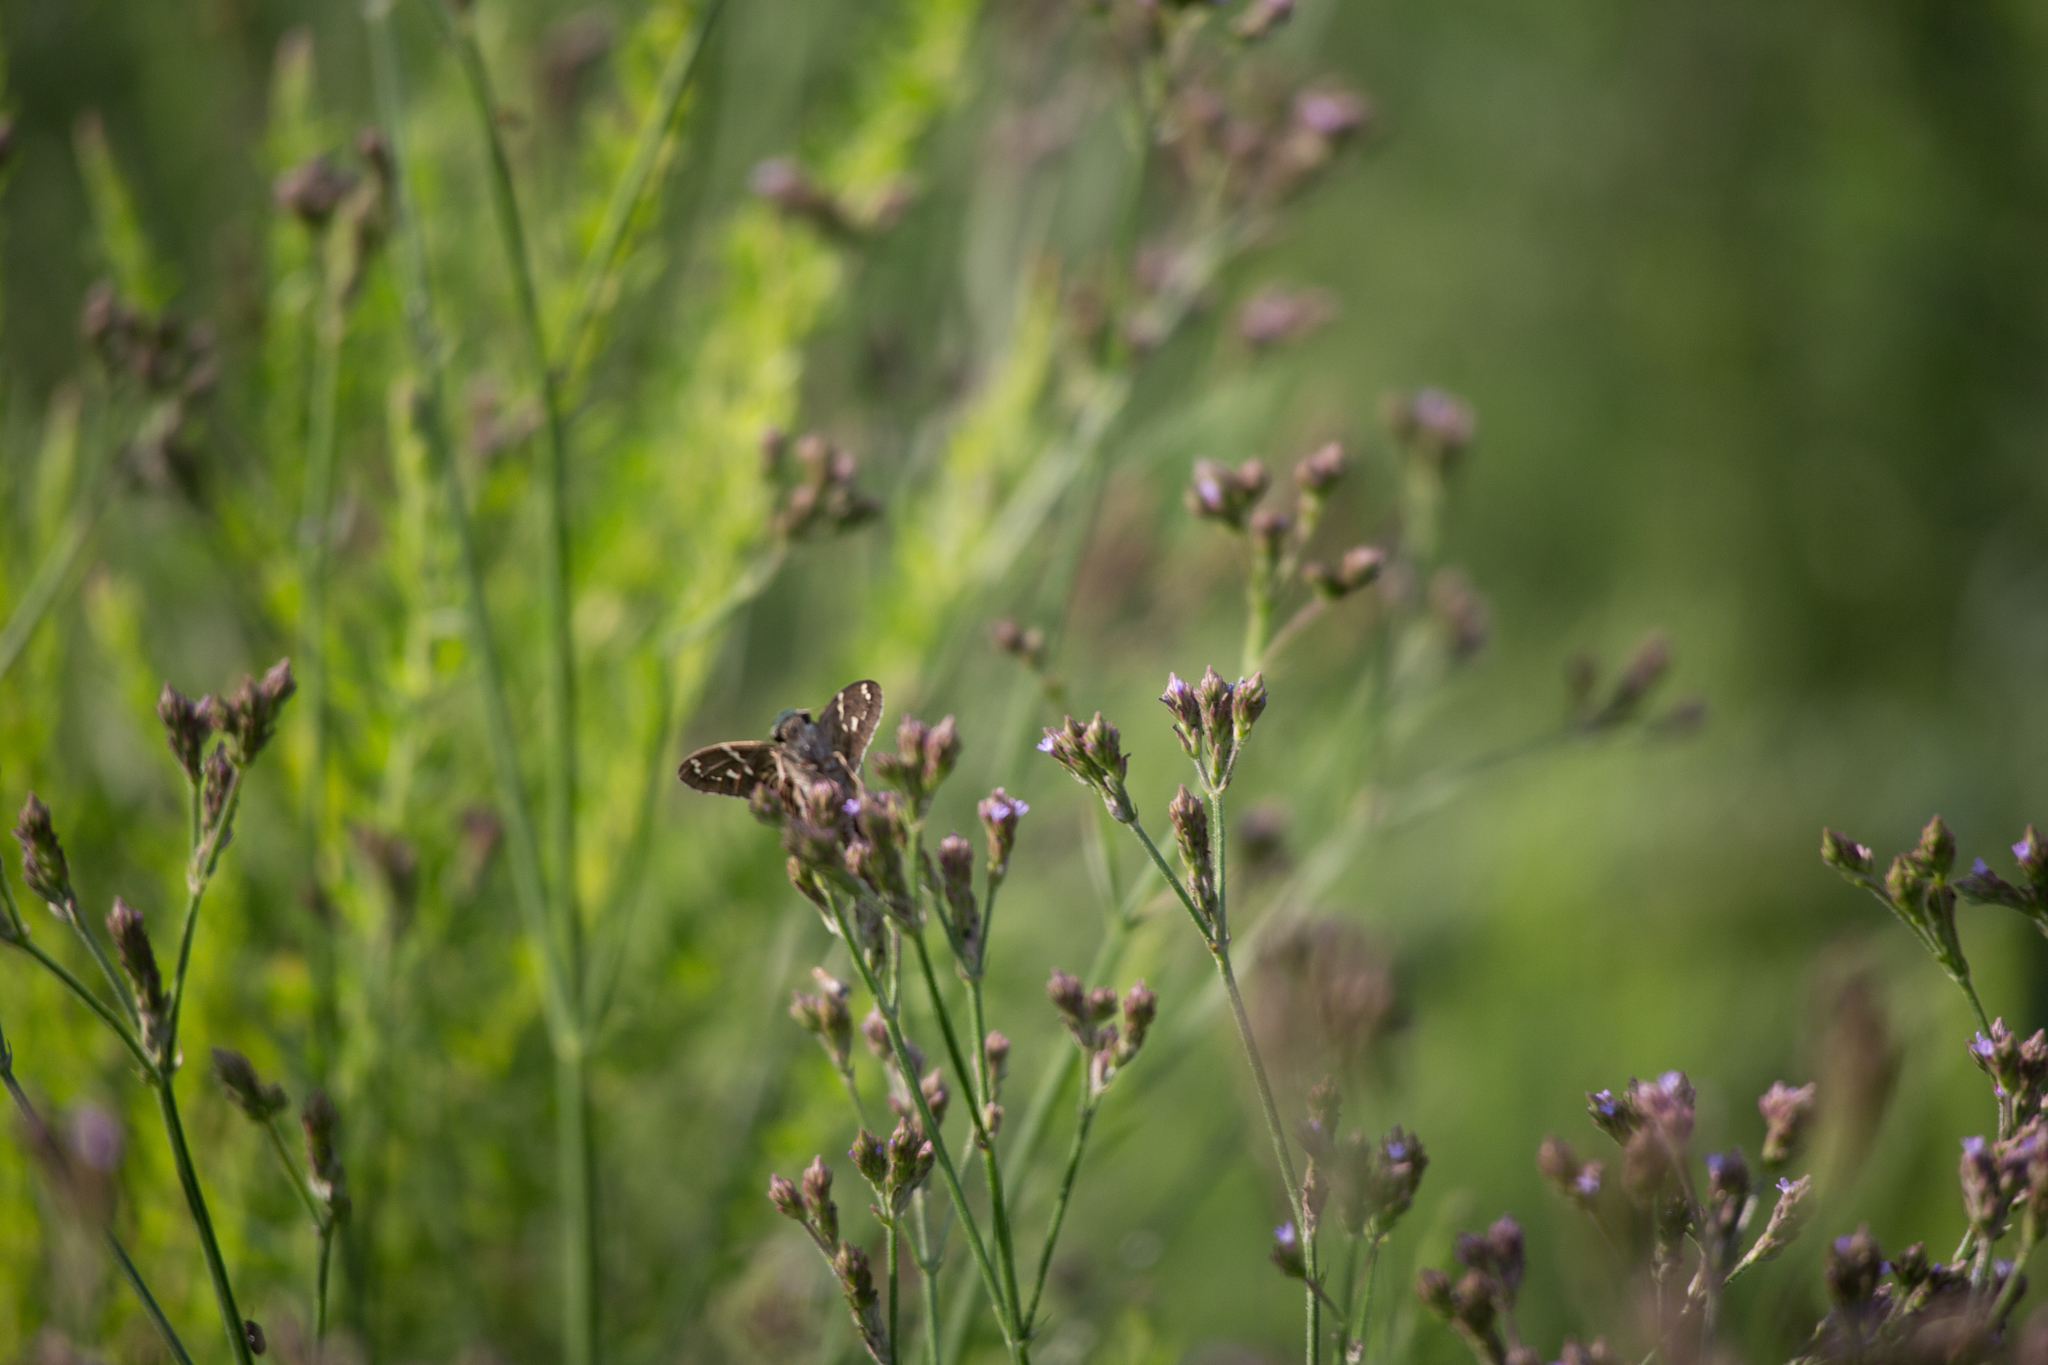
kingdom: Animalia
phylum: Arthropoda
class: Insecta
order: Lepidoptera
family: Hesperiidae
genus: Urbanus
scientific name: Urbanus proteus
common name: Long-tailed skipper
